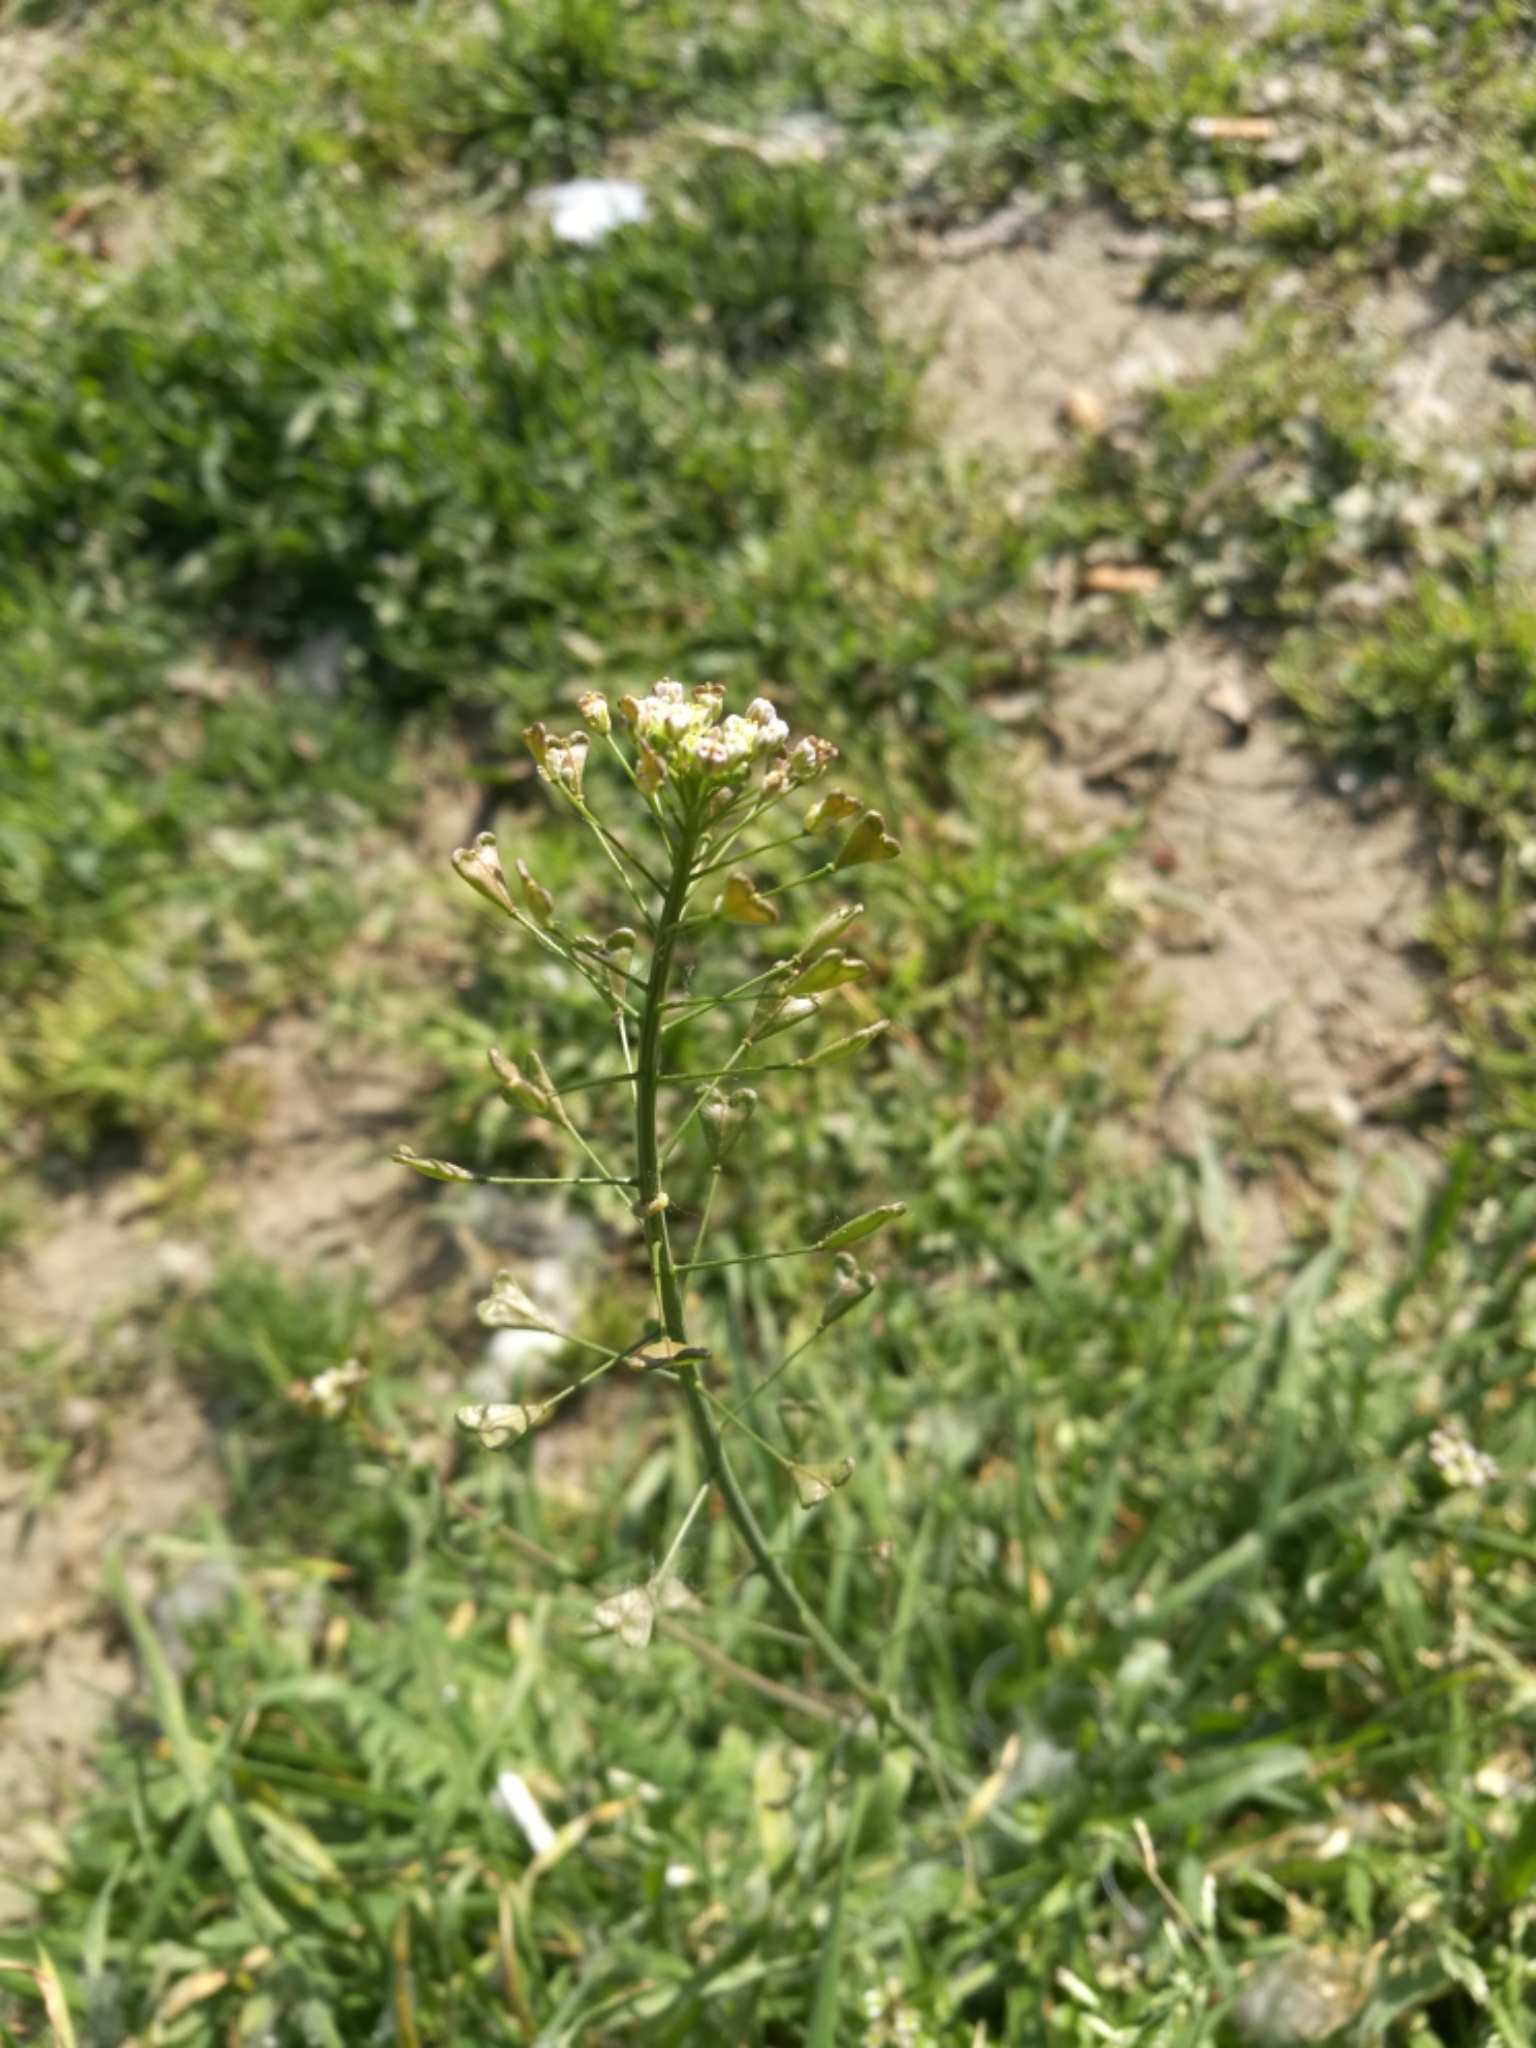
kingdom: Plantae
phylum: Tracheophyta
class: Magnoliopsida
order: Brassicales
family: Brassicaceae
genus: Capsella
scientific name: Capsella bursa-pastoris
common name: Shepherd's purse
